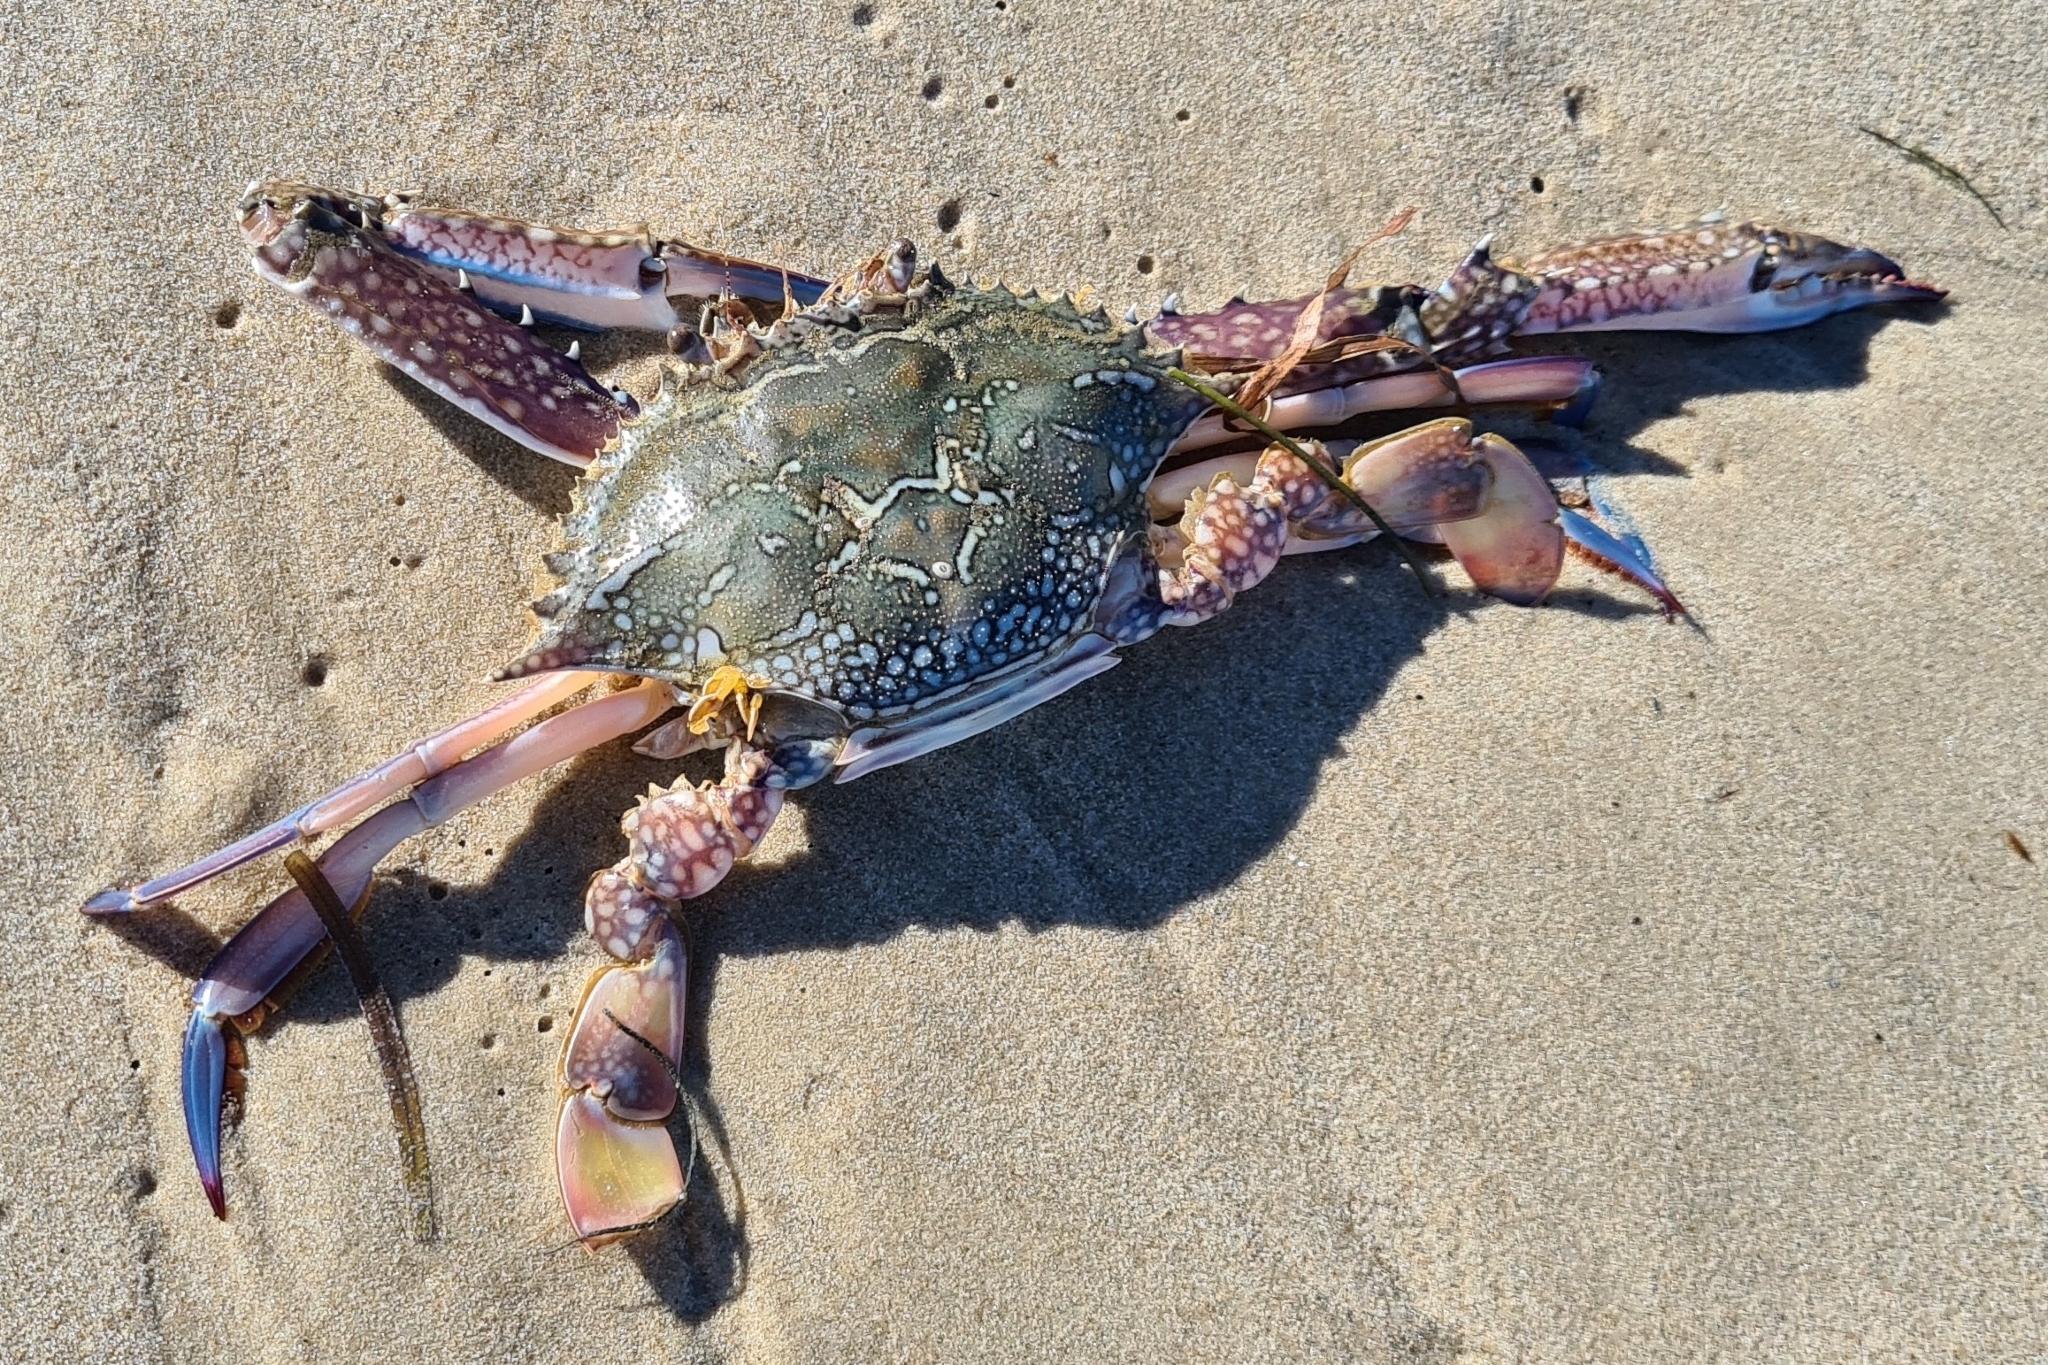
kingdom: Animalia
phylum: Arthropoda
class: Malacostraca
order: Decapoda
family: Portunidae
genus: Portunus
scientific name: Portunus armatus
